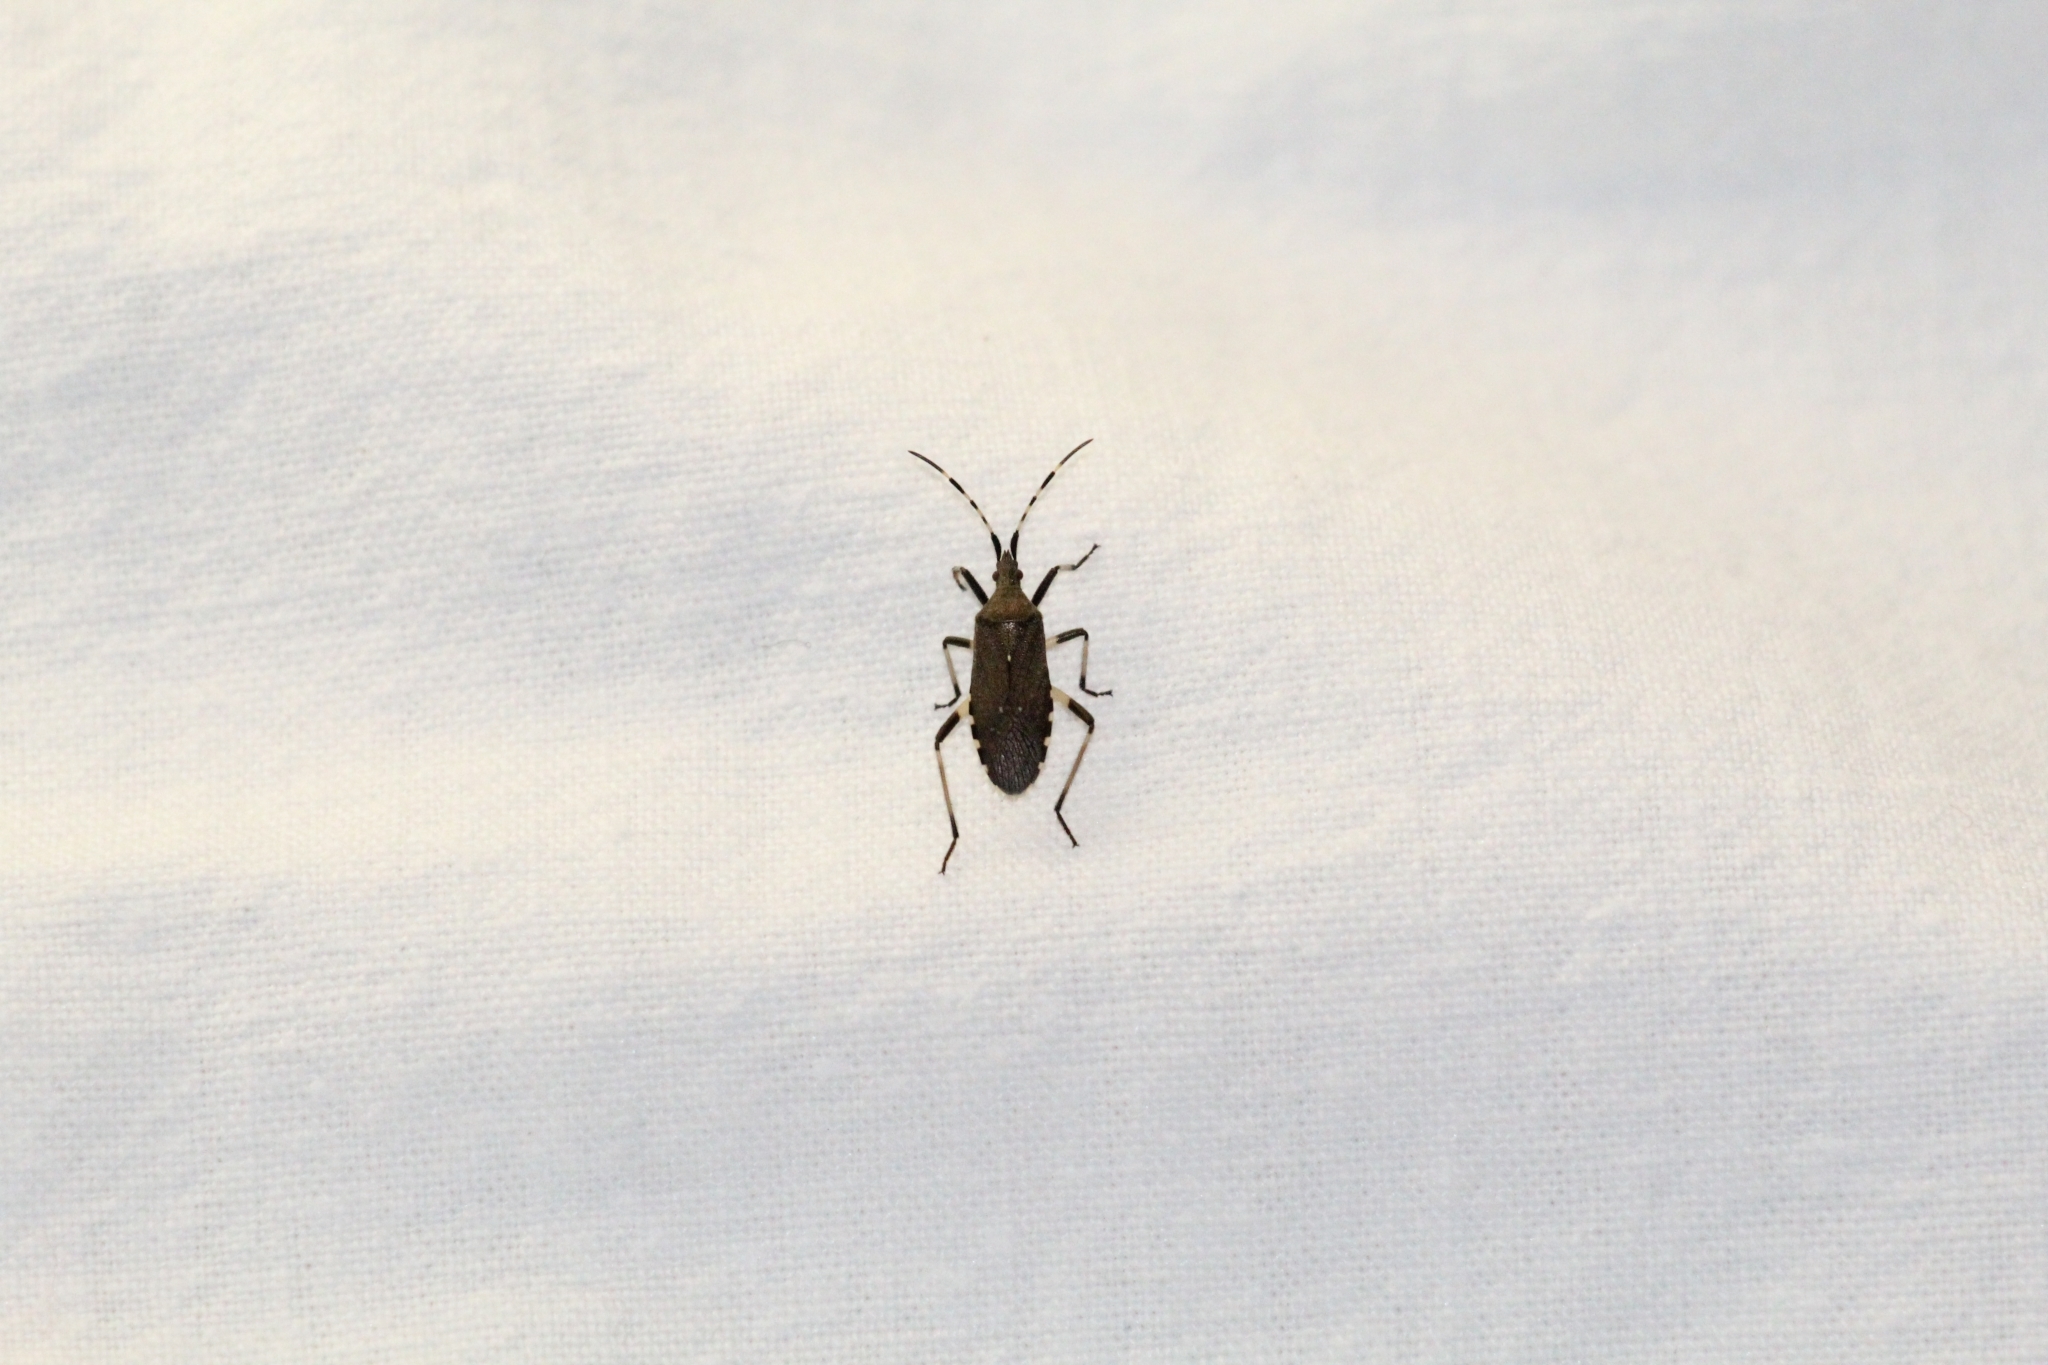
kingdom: Animalia
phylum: Arthropoda
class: Insecta
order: Hemiptera
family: Stenocephalidae
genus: Dicranocephalus
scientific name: Dicranocephalus agilis
